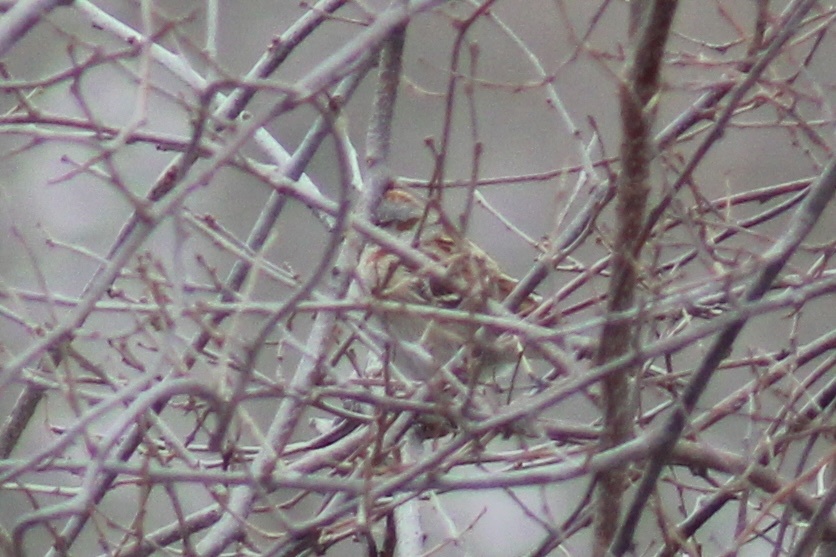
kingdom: Animalia
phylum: Chordata
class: Aves
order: Passeriformes
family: Passerellidae
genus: Spizelloides
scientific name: Spizelloides arborea
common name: American tree sparrow
